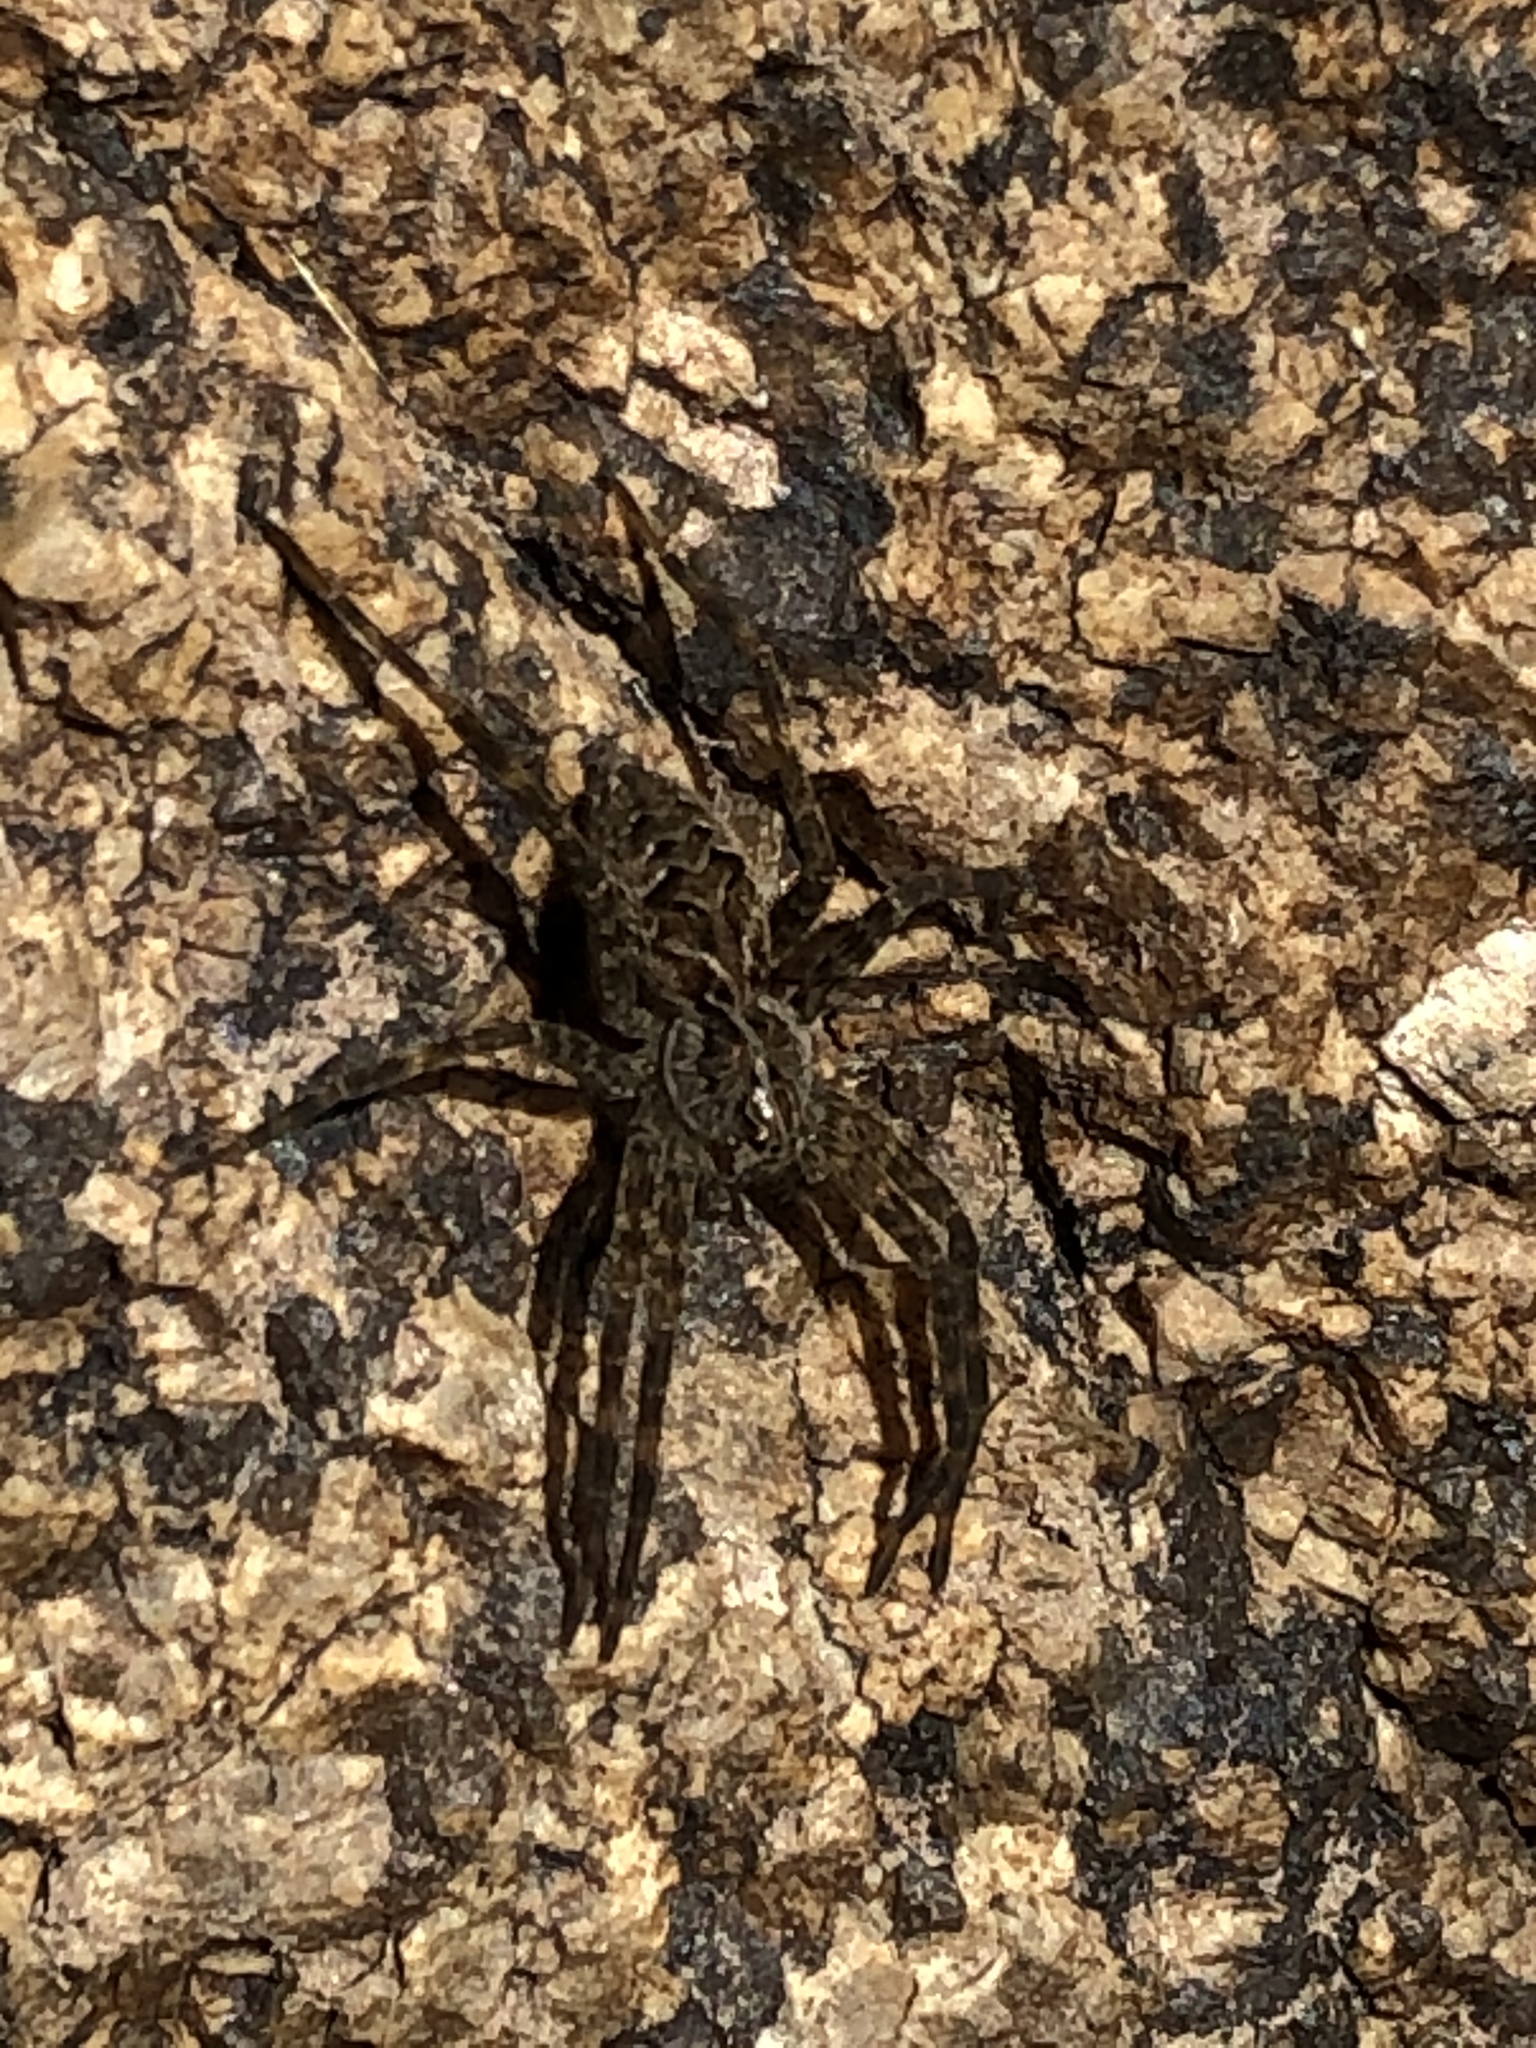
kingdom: Animalia
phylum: Arthropoda
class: Arachnida
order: Araneae
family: Pisauridae
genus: Dolomedes
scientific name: Dolomedes scriptus
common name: Striped fishing spider
